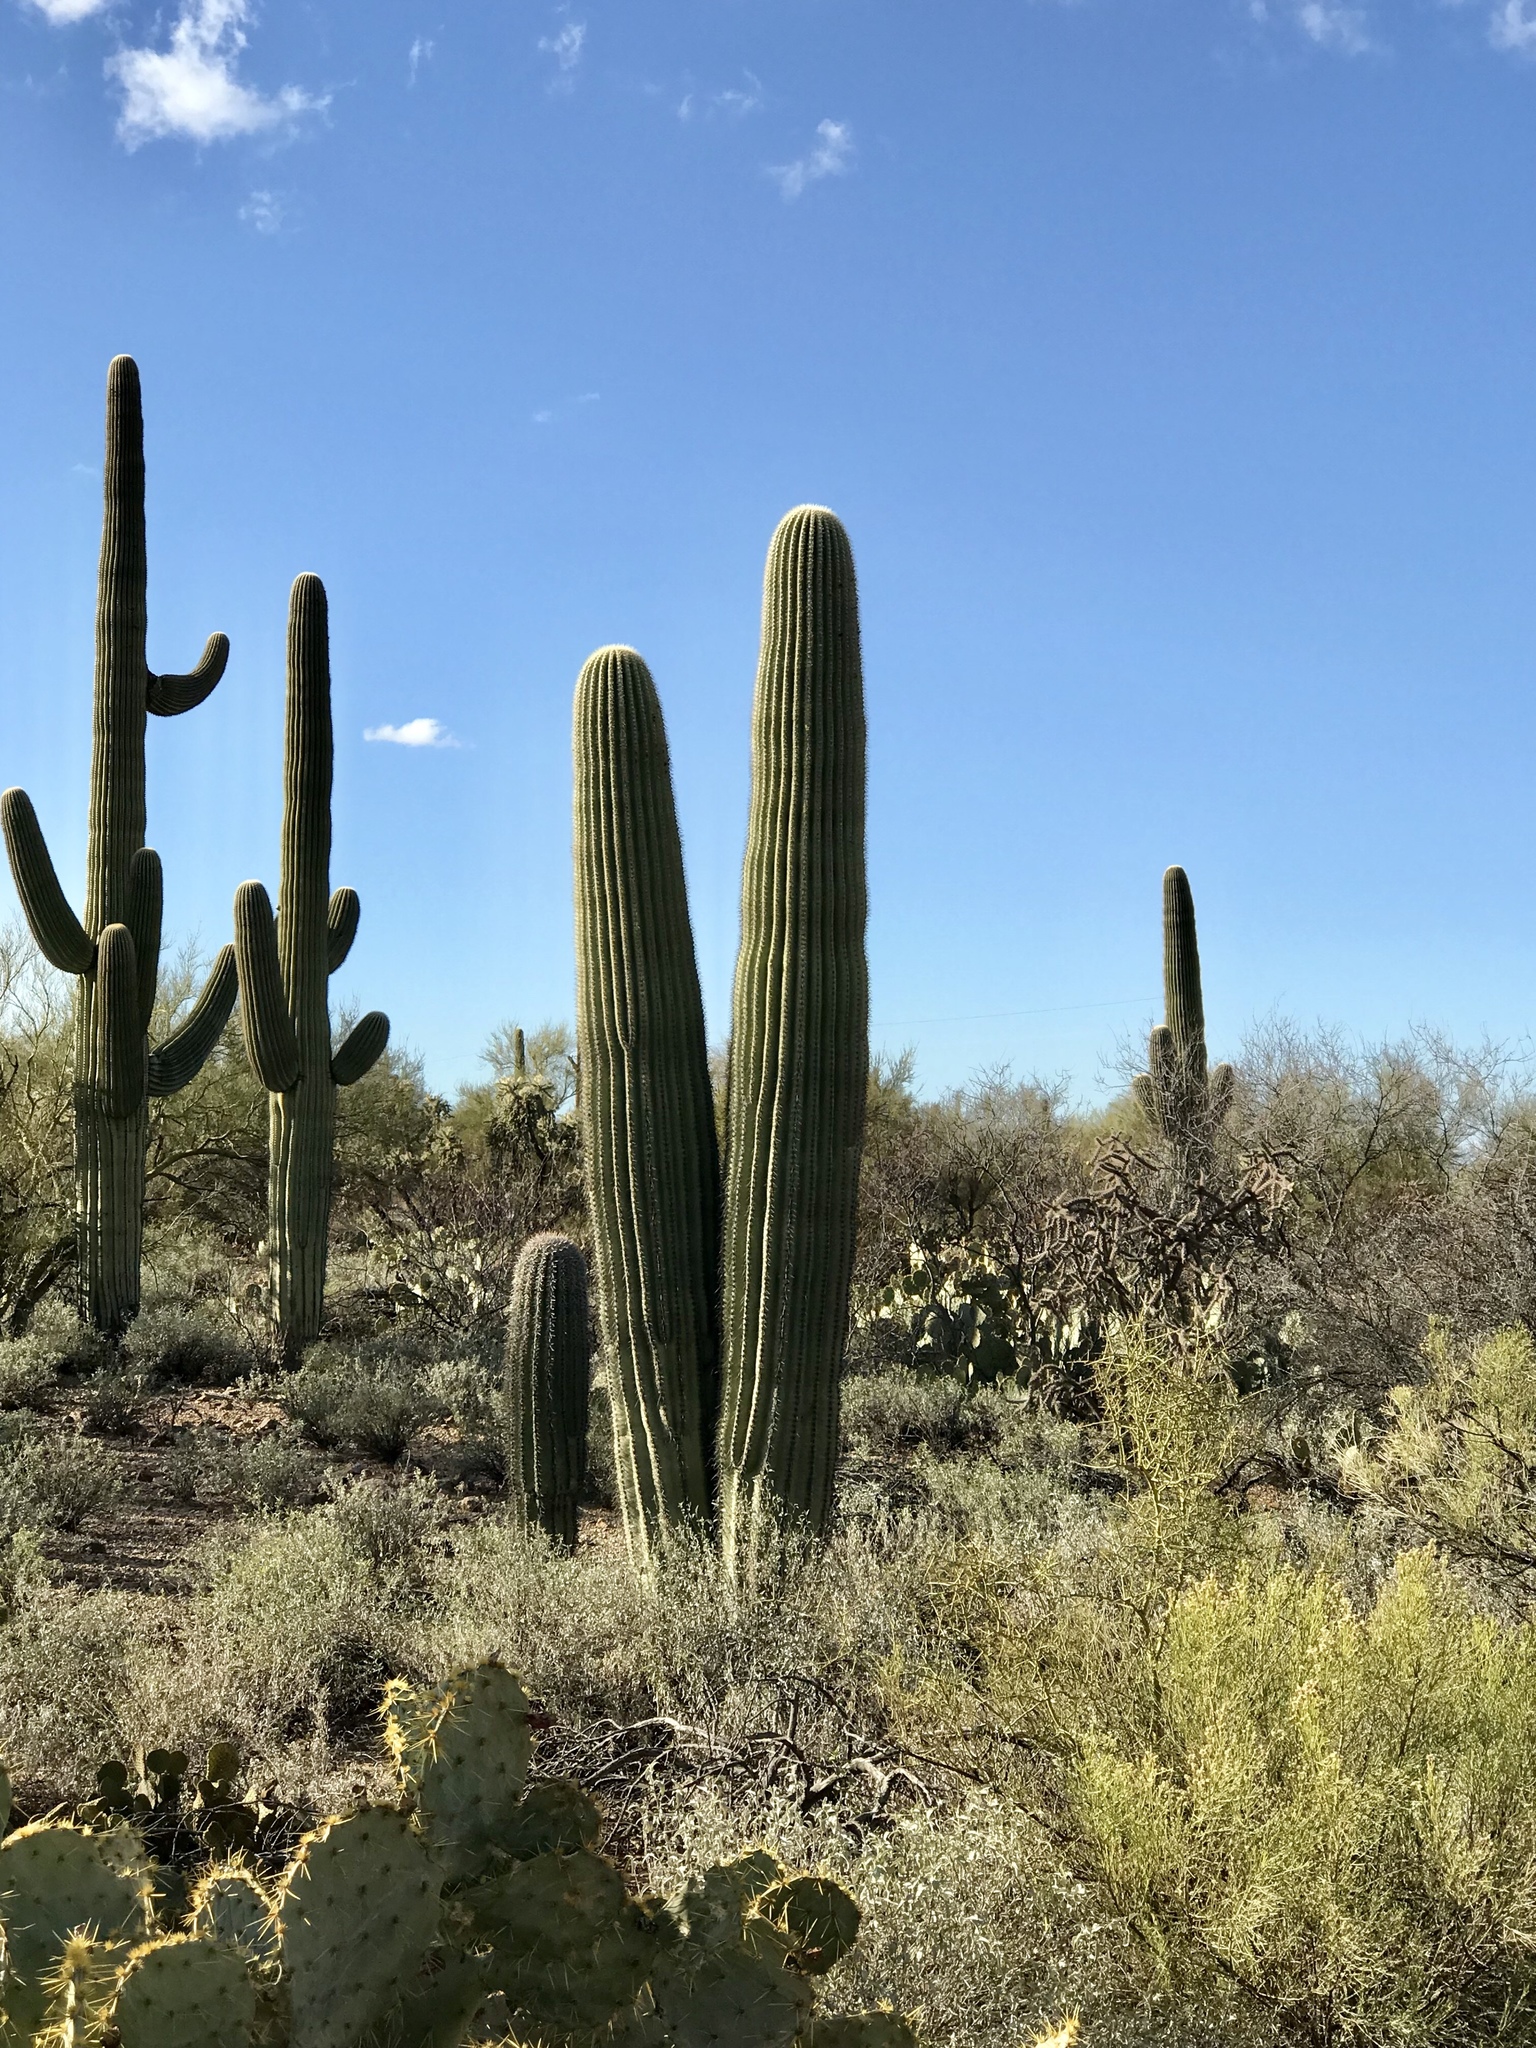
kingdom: Plantae
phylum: Tracheophyta
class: Magnoliopsida
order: Caryophyllales
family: Cactaceae
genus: Carnegiea
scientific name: Carnegiea gigantea
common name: Saguaro
